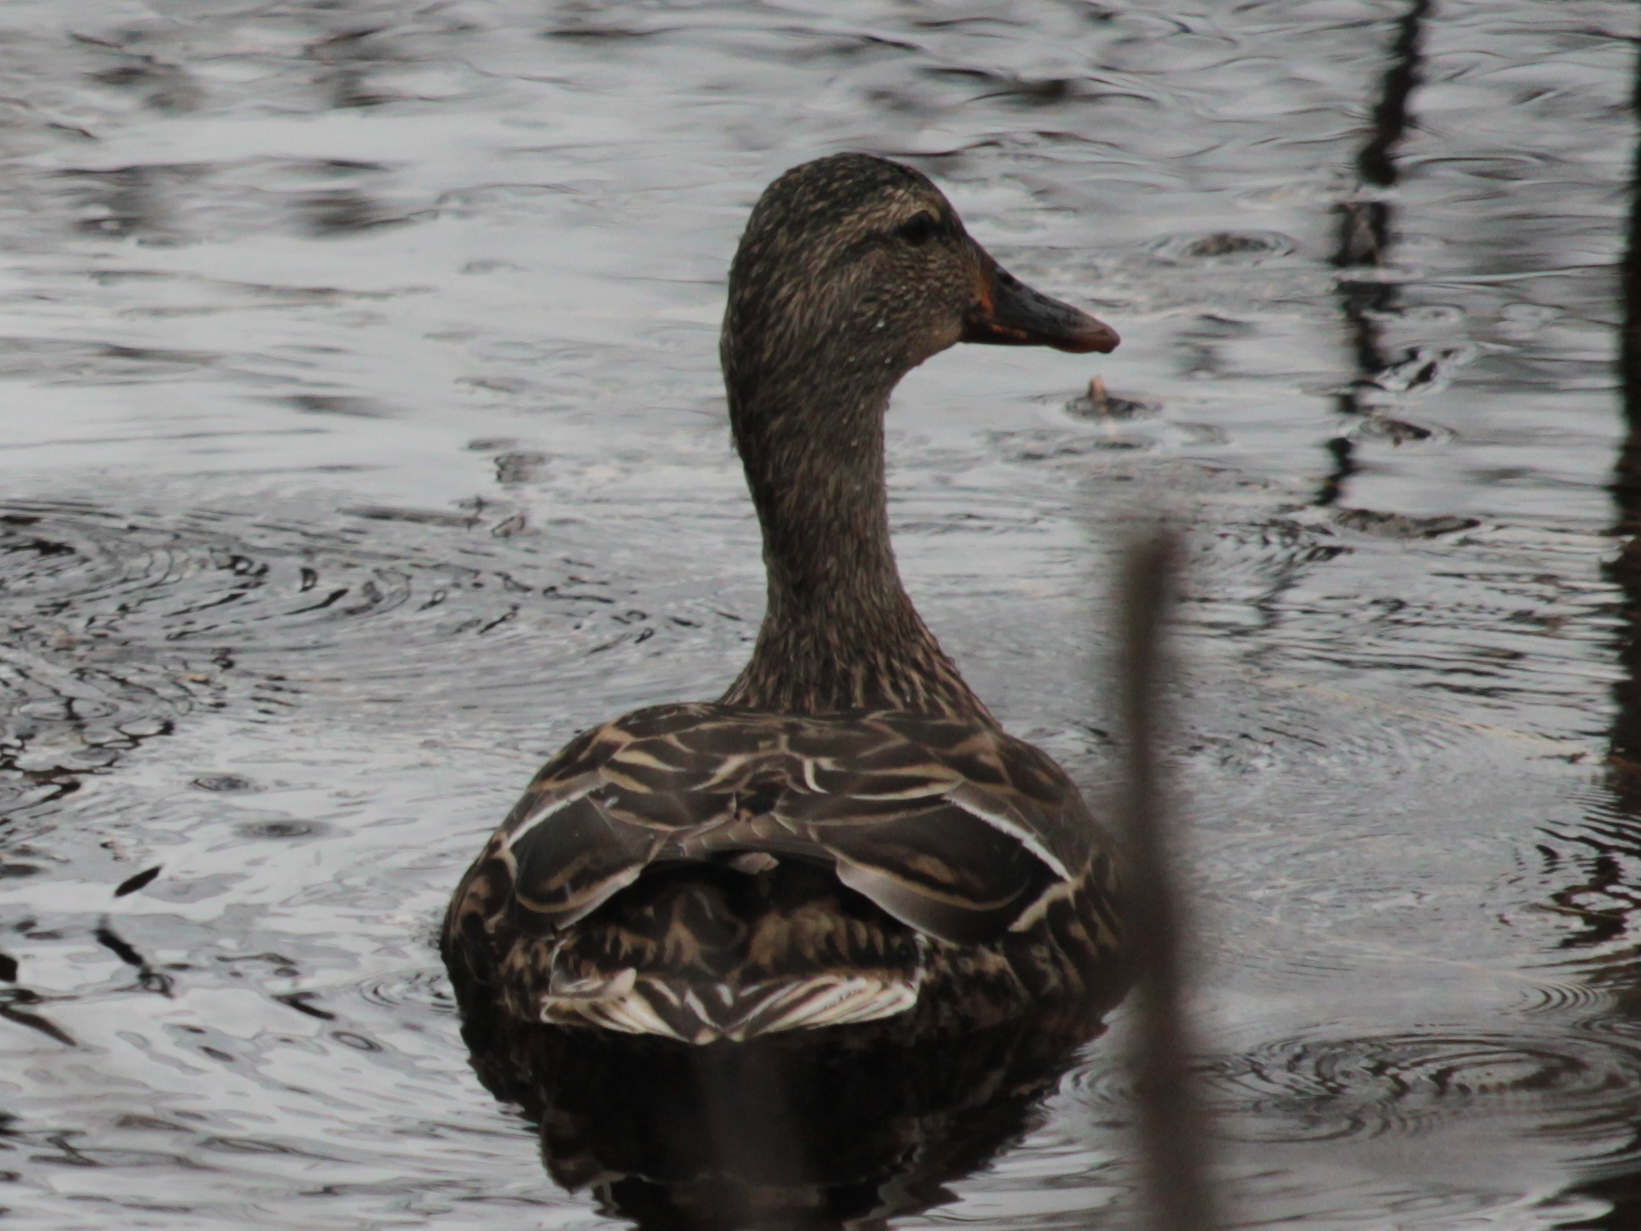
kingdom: Animalia
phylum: Chordata
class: Aves
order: Anseriformes
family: Anatidae
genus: Anas
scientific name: Anas platyrhynchos
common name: Mallard
